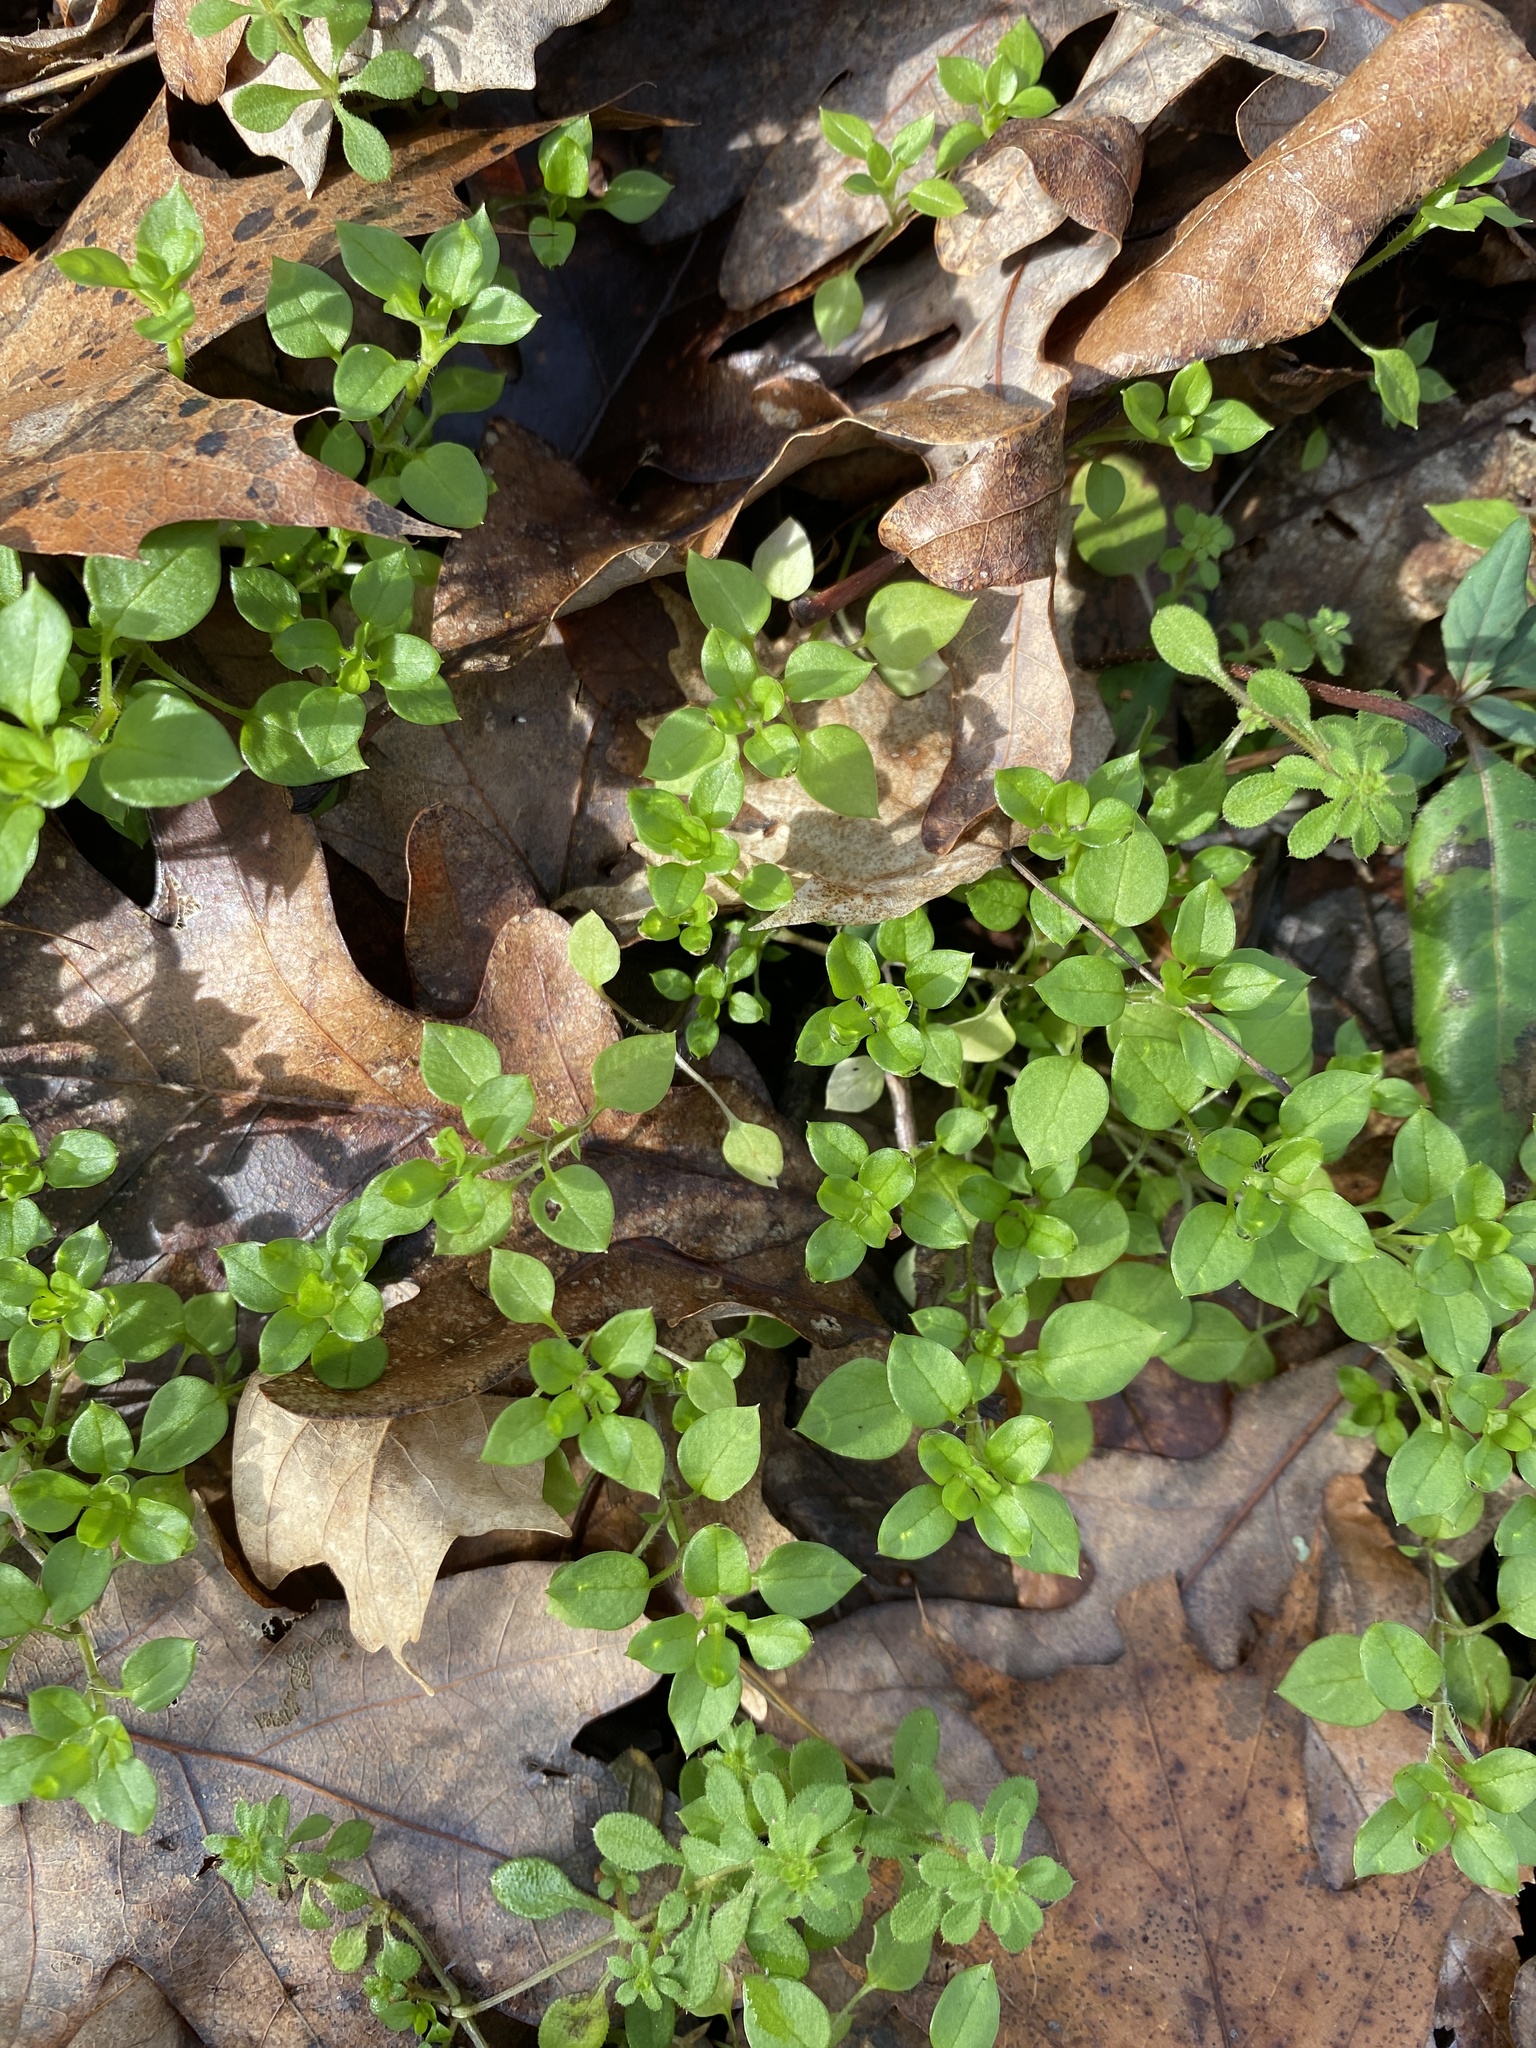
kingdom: Plantae
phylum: Tracheophyta
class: Magnoliopsida
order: Caryophyllales
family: Caryophyllaceae
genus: Stellaria
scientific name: Stellaria media
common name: Common chickweed
